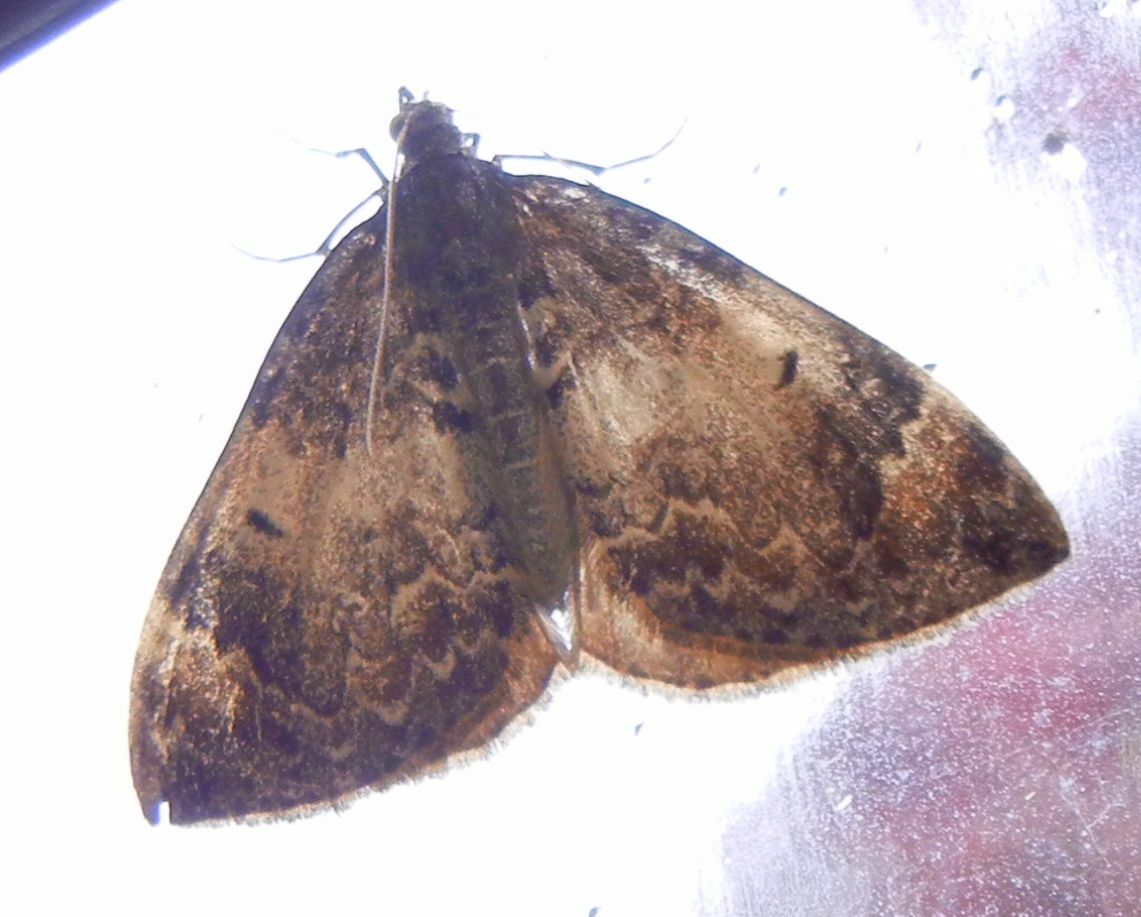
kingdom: Animalia
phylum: Arthropoda
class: Insecta
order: Lepidoptera
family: Geometridae
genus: Dysstroma
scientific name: Dysstroma truncata
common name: Common marbled carpet
